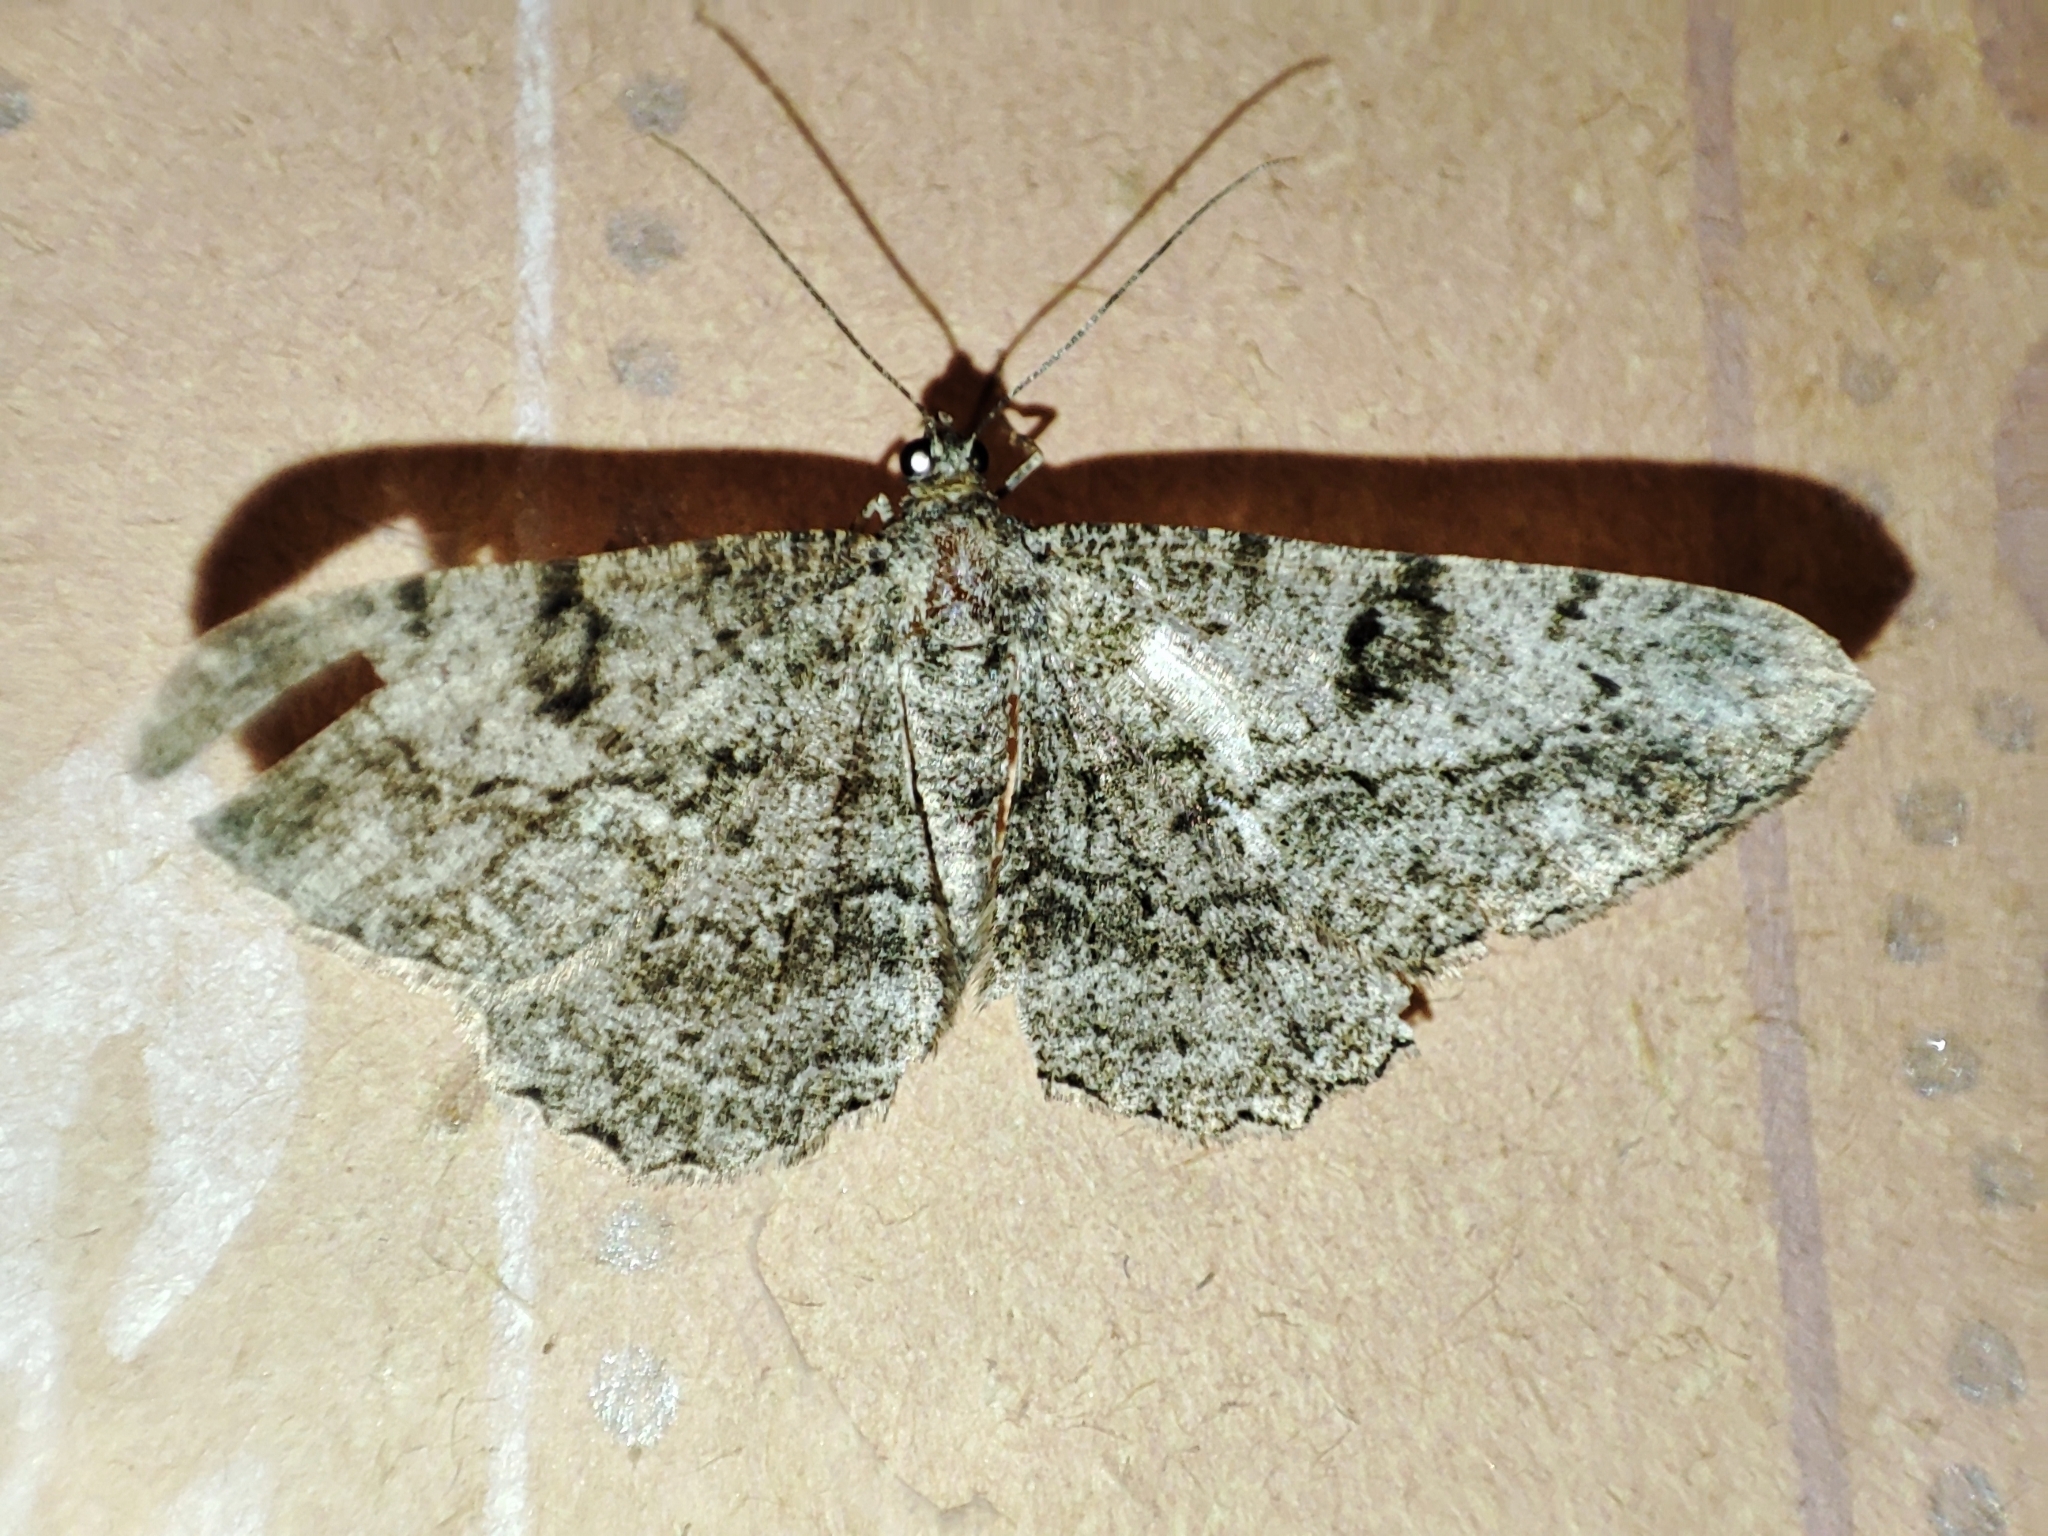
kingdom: Animalia
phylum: Arthropoda
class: Insecta
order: Lepidoptera
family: Geometridae
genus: Peribatodes
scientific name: Peribatodes rhomboidaria
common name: Willow beauty
